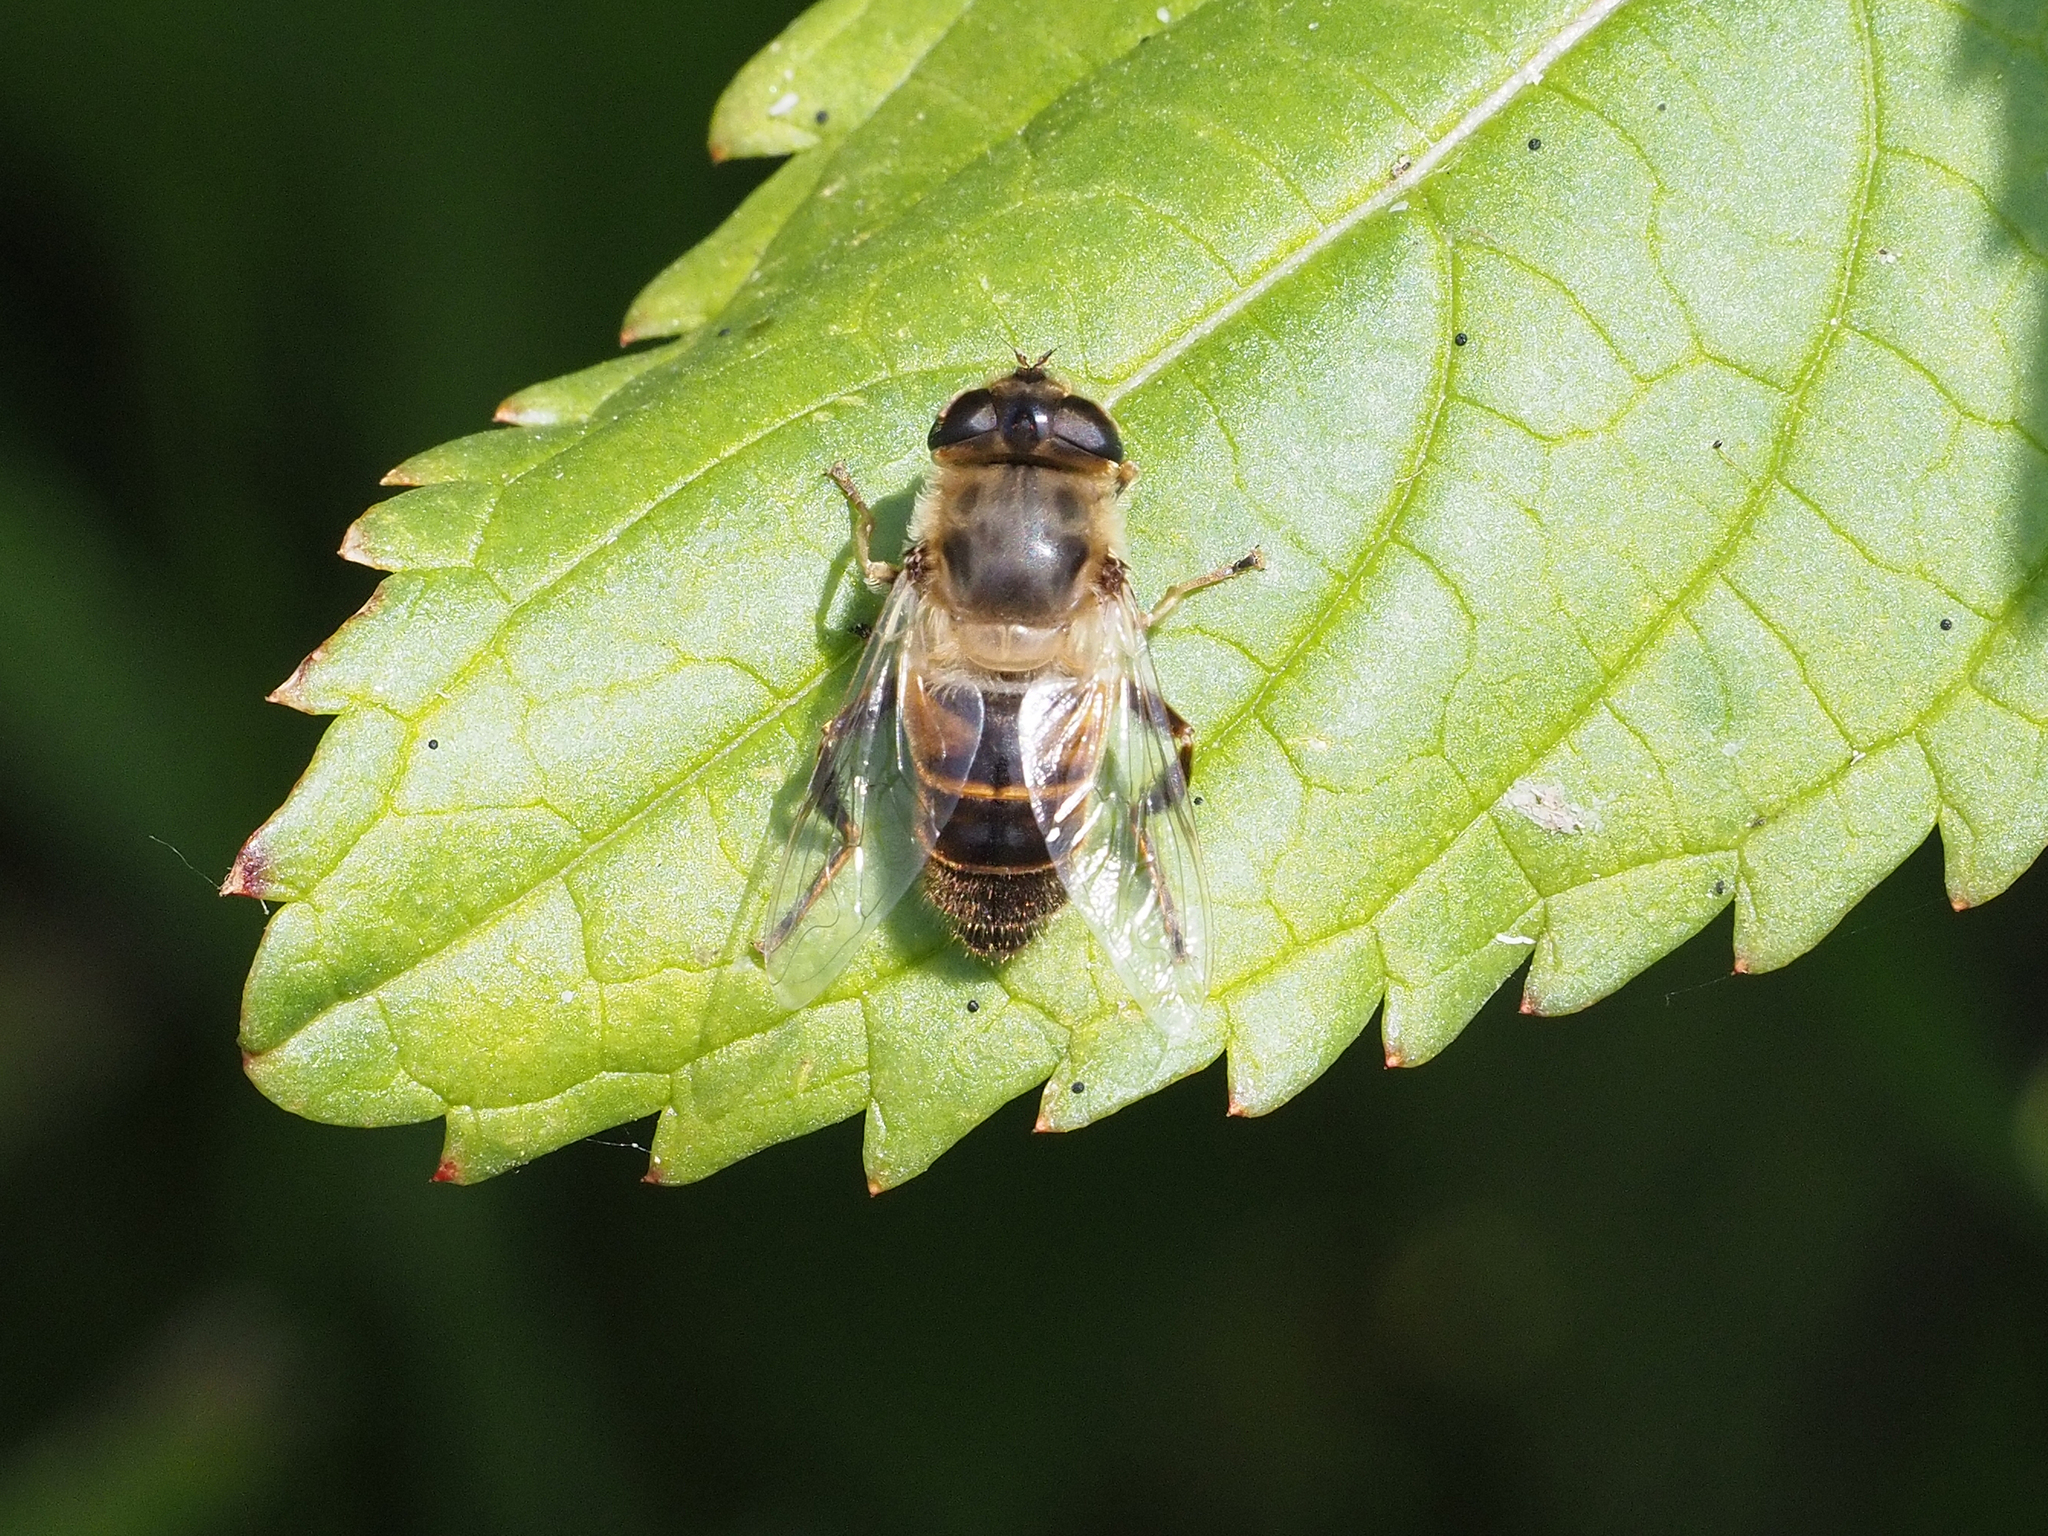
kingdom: Animalia
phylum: Arthropoda
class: Insecta
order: Diptera
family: Syrphidae
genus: Eristalis
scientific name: Eristalis tenax
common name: Drone fly
